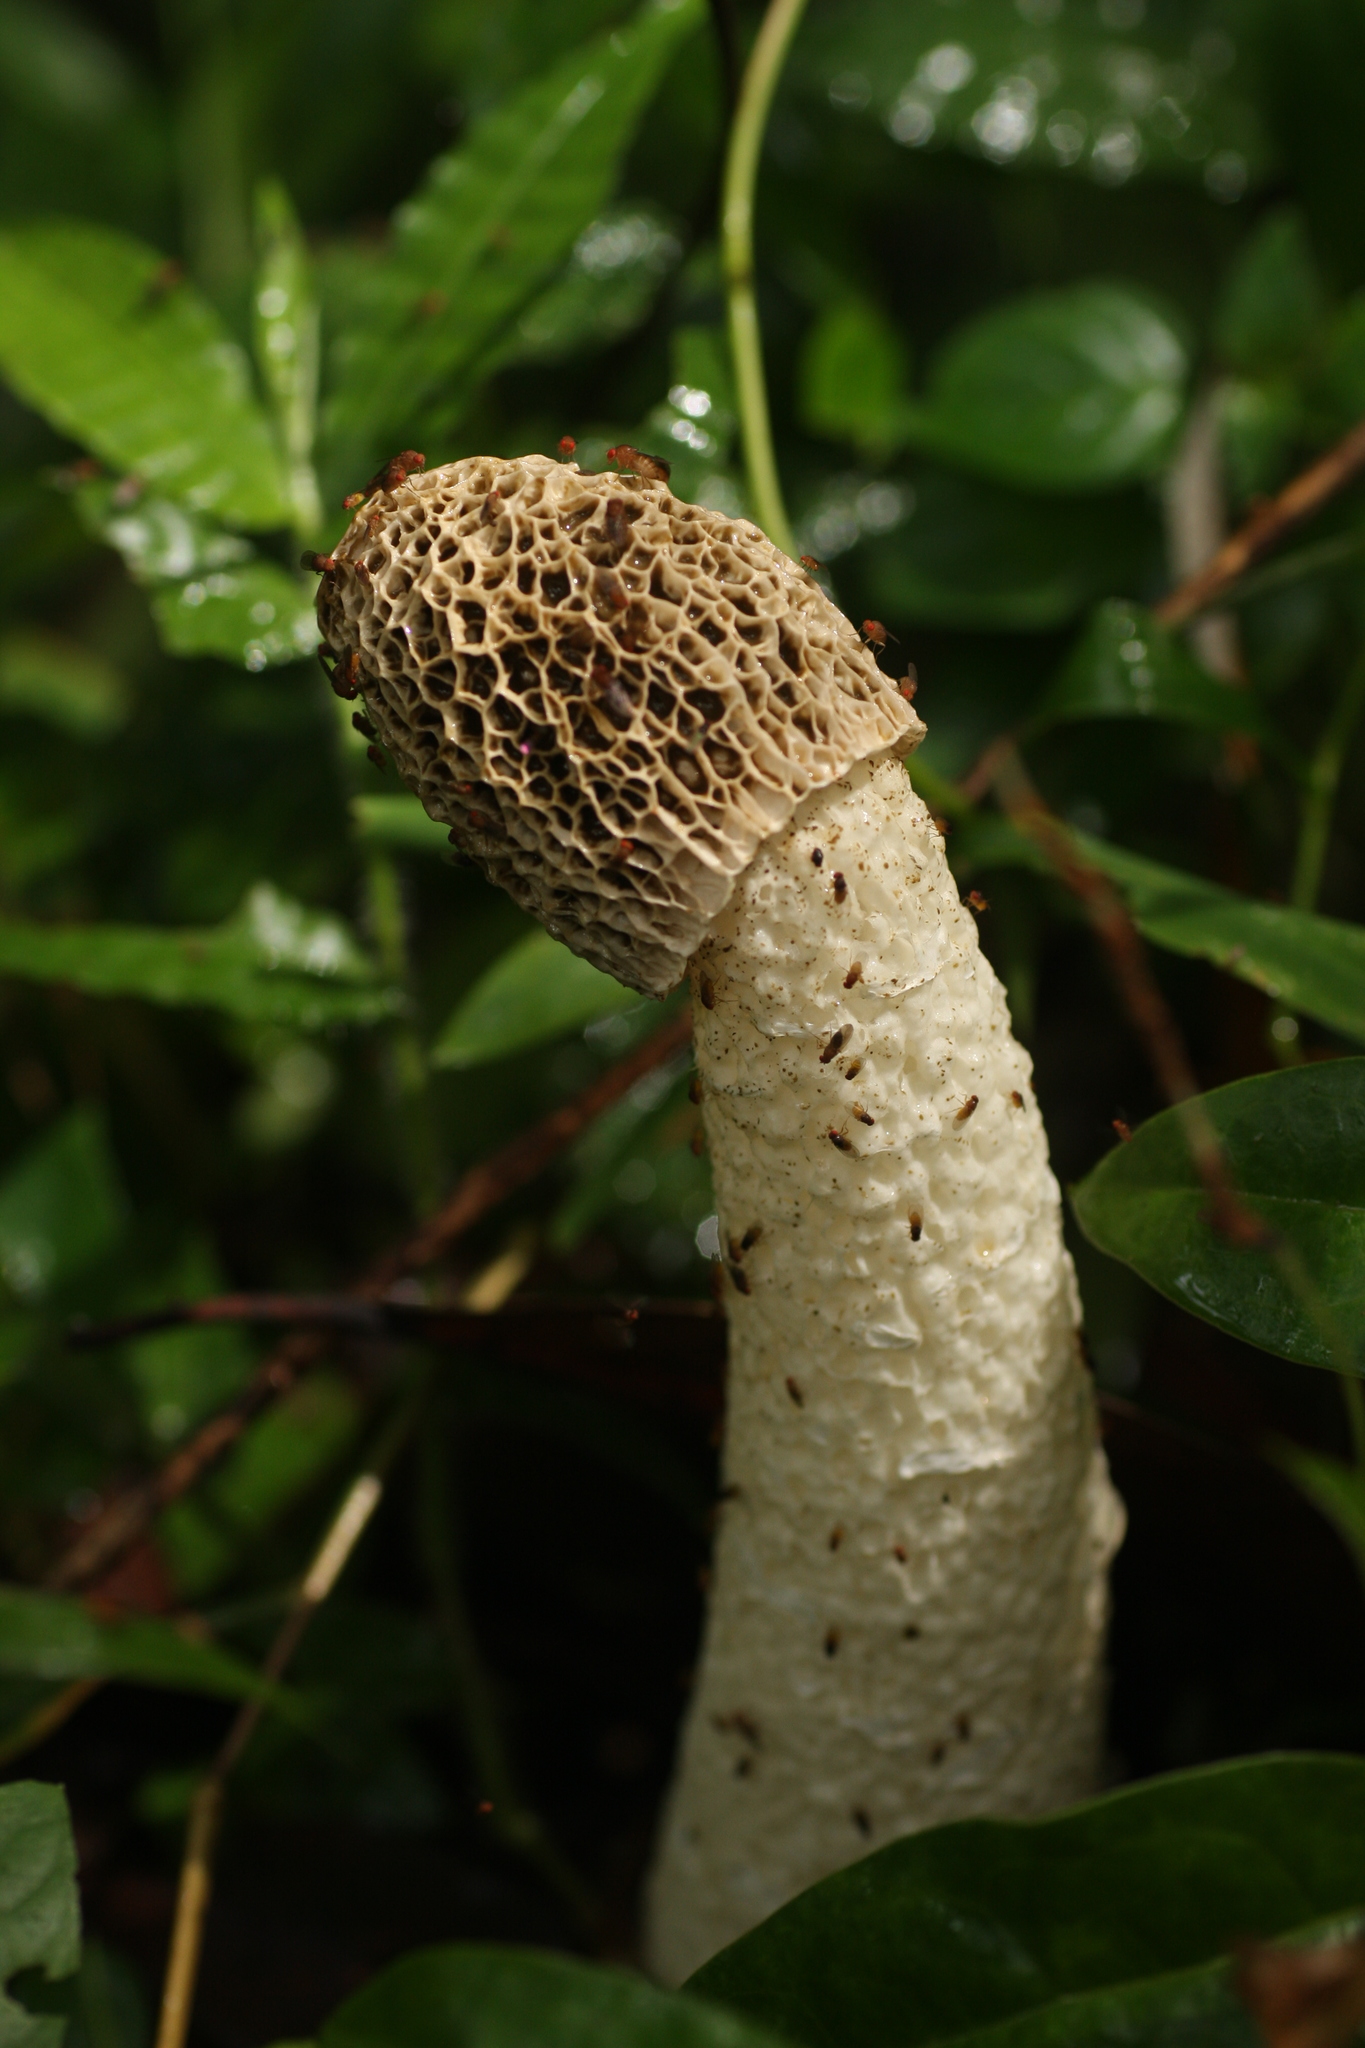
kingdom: Fungi
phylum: Basidiomycota
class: Agaricomycetes
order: Phallales
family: Phallaceae
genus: Phallus
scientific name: Phallus dongsun
